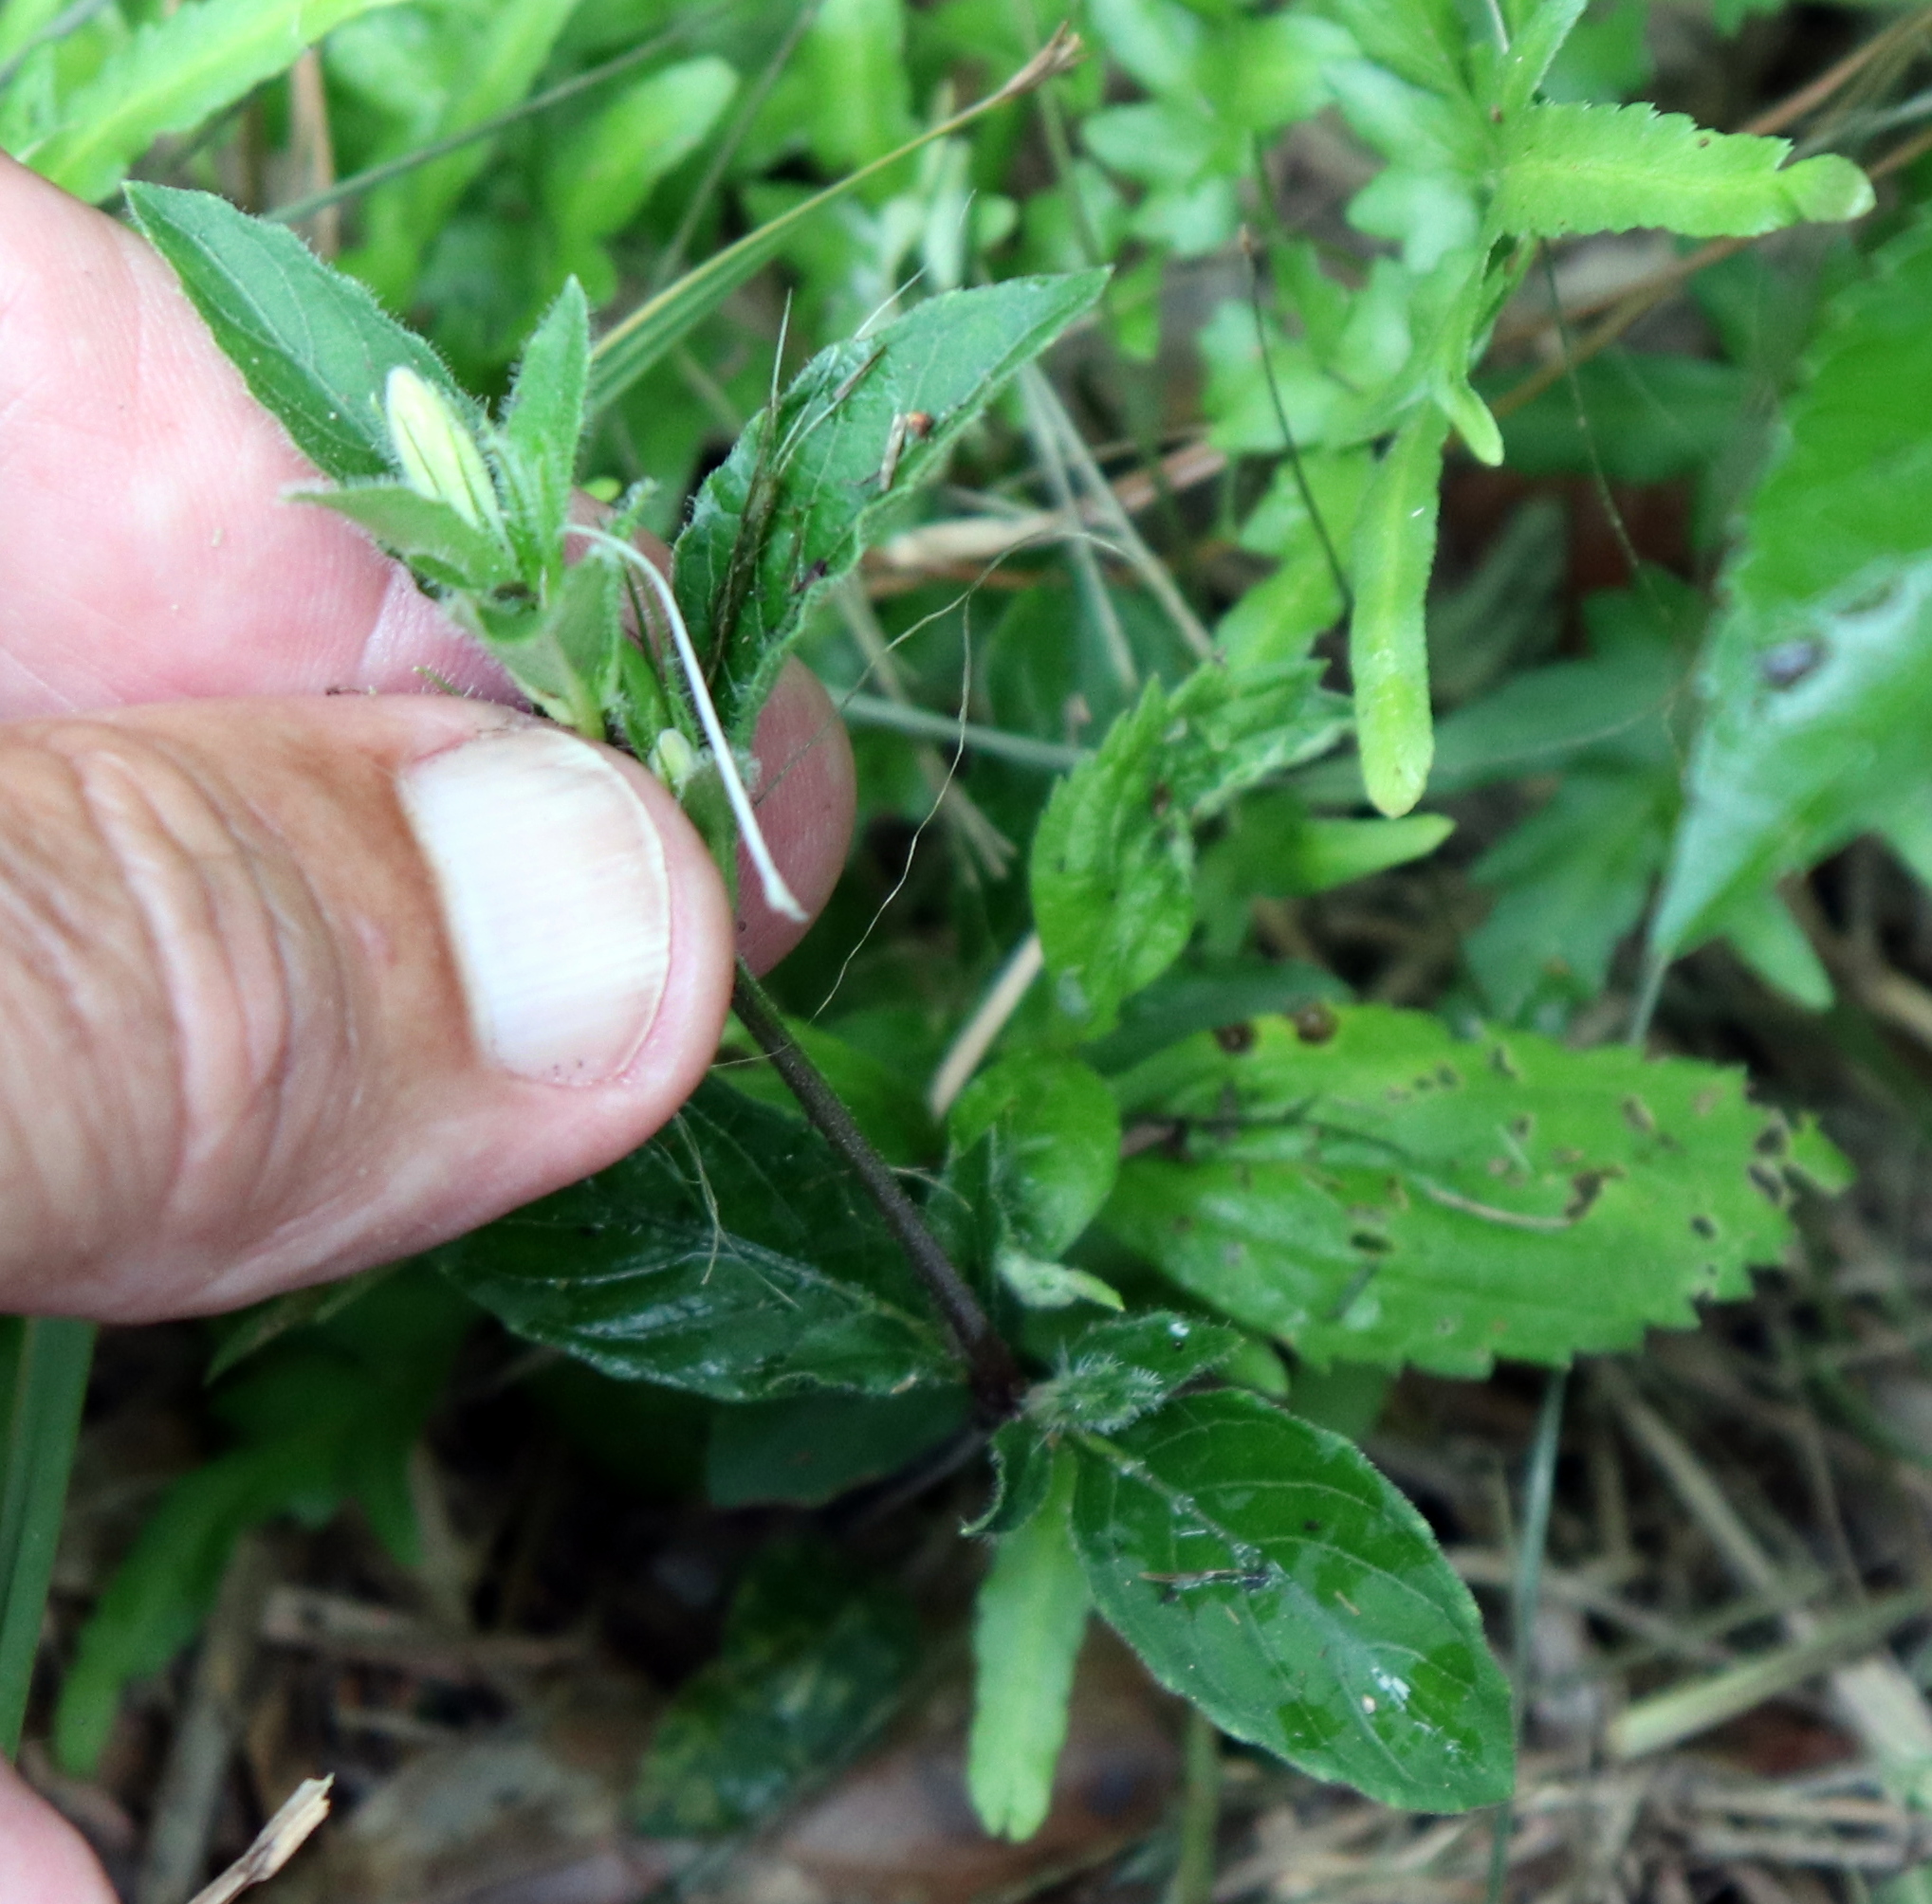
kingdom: Plantae
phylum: Tracheophyta
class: Magnoliopsida
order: Lamiales
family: Acanthaceae
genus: Ruellia
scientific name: Ruellia caroliniensis
